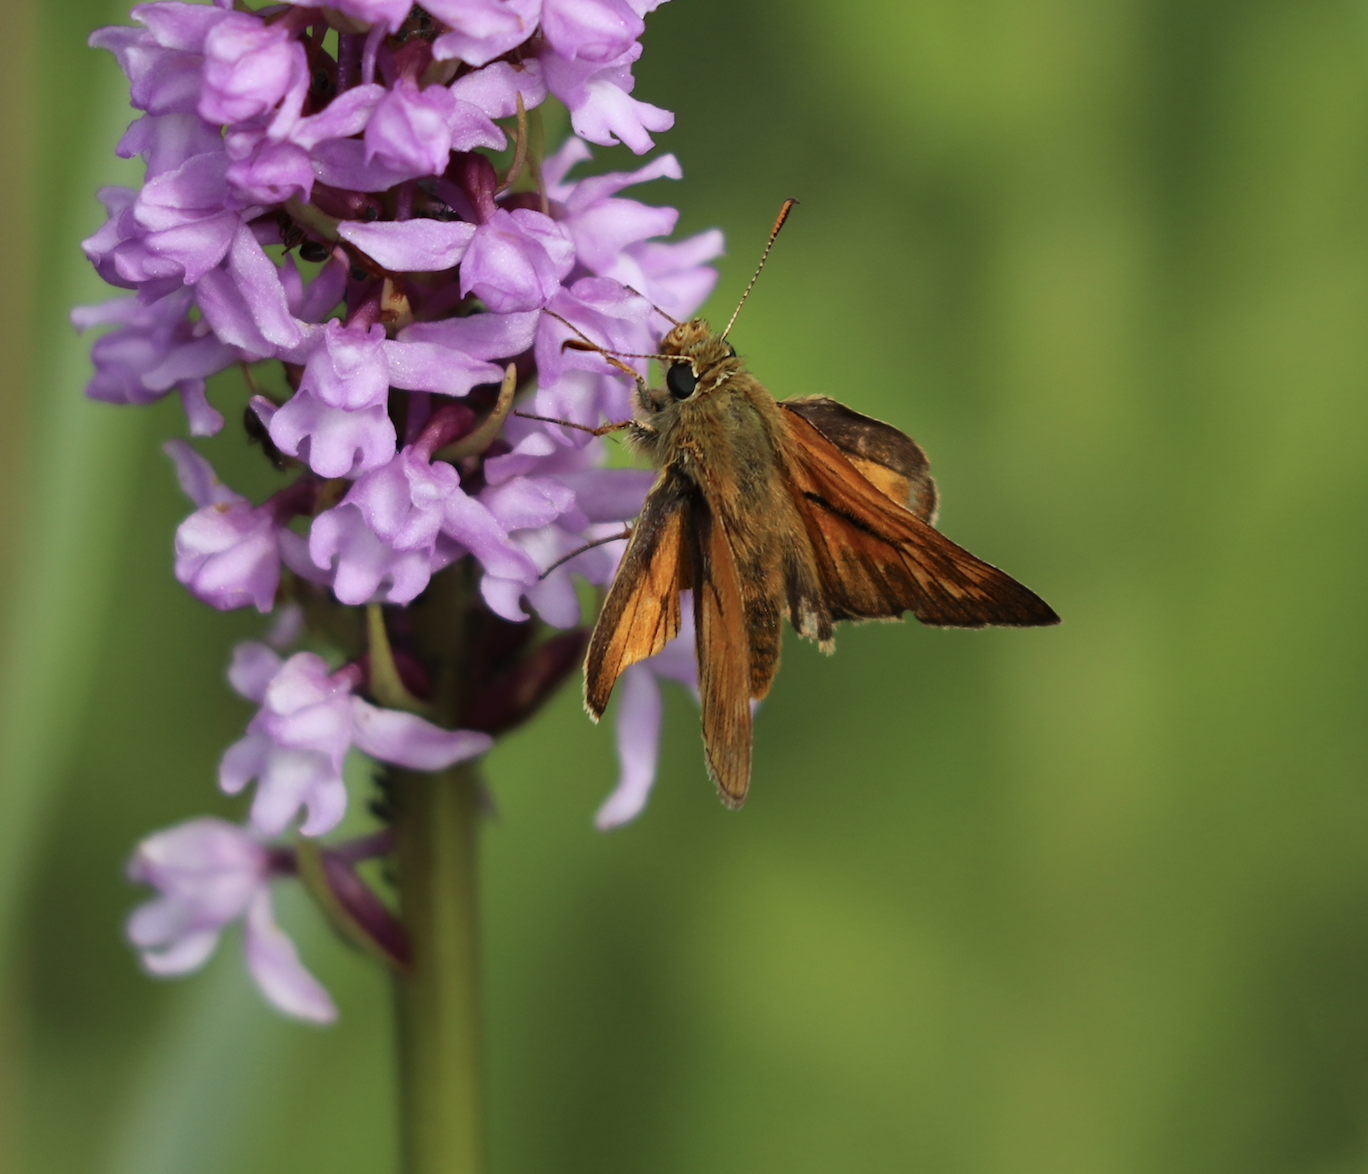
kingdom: Animalia
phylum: Arthropoda
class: Insecta
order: Lepidoptera
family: Hesperiidae
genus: Ochlodes
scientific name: Ochlodes venata
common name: Large skipper
